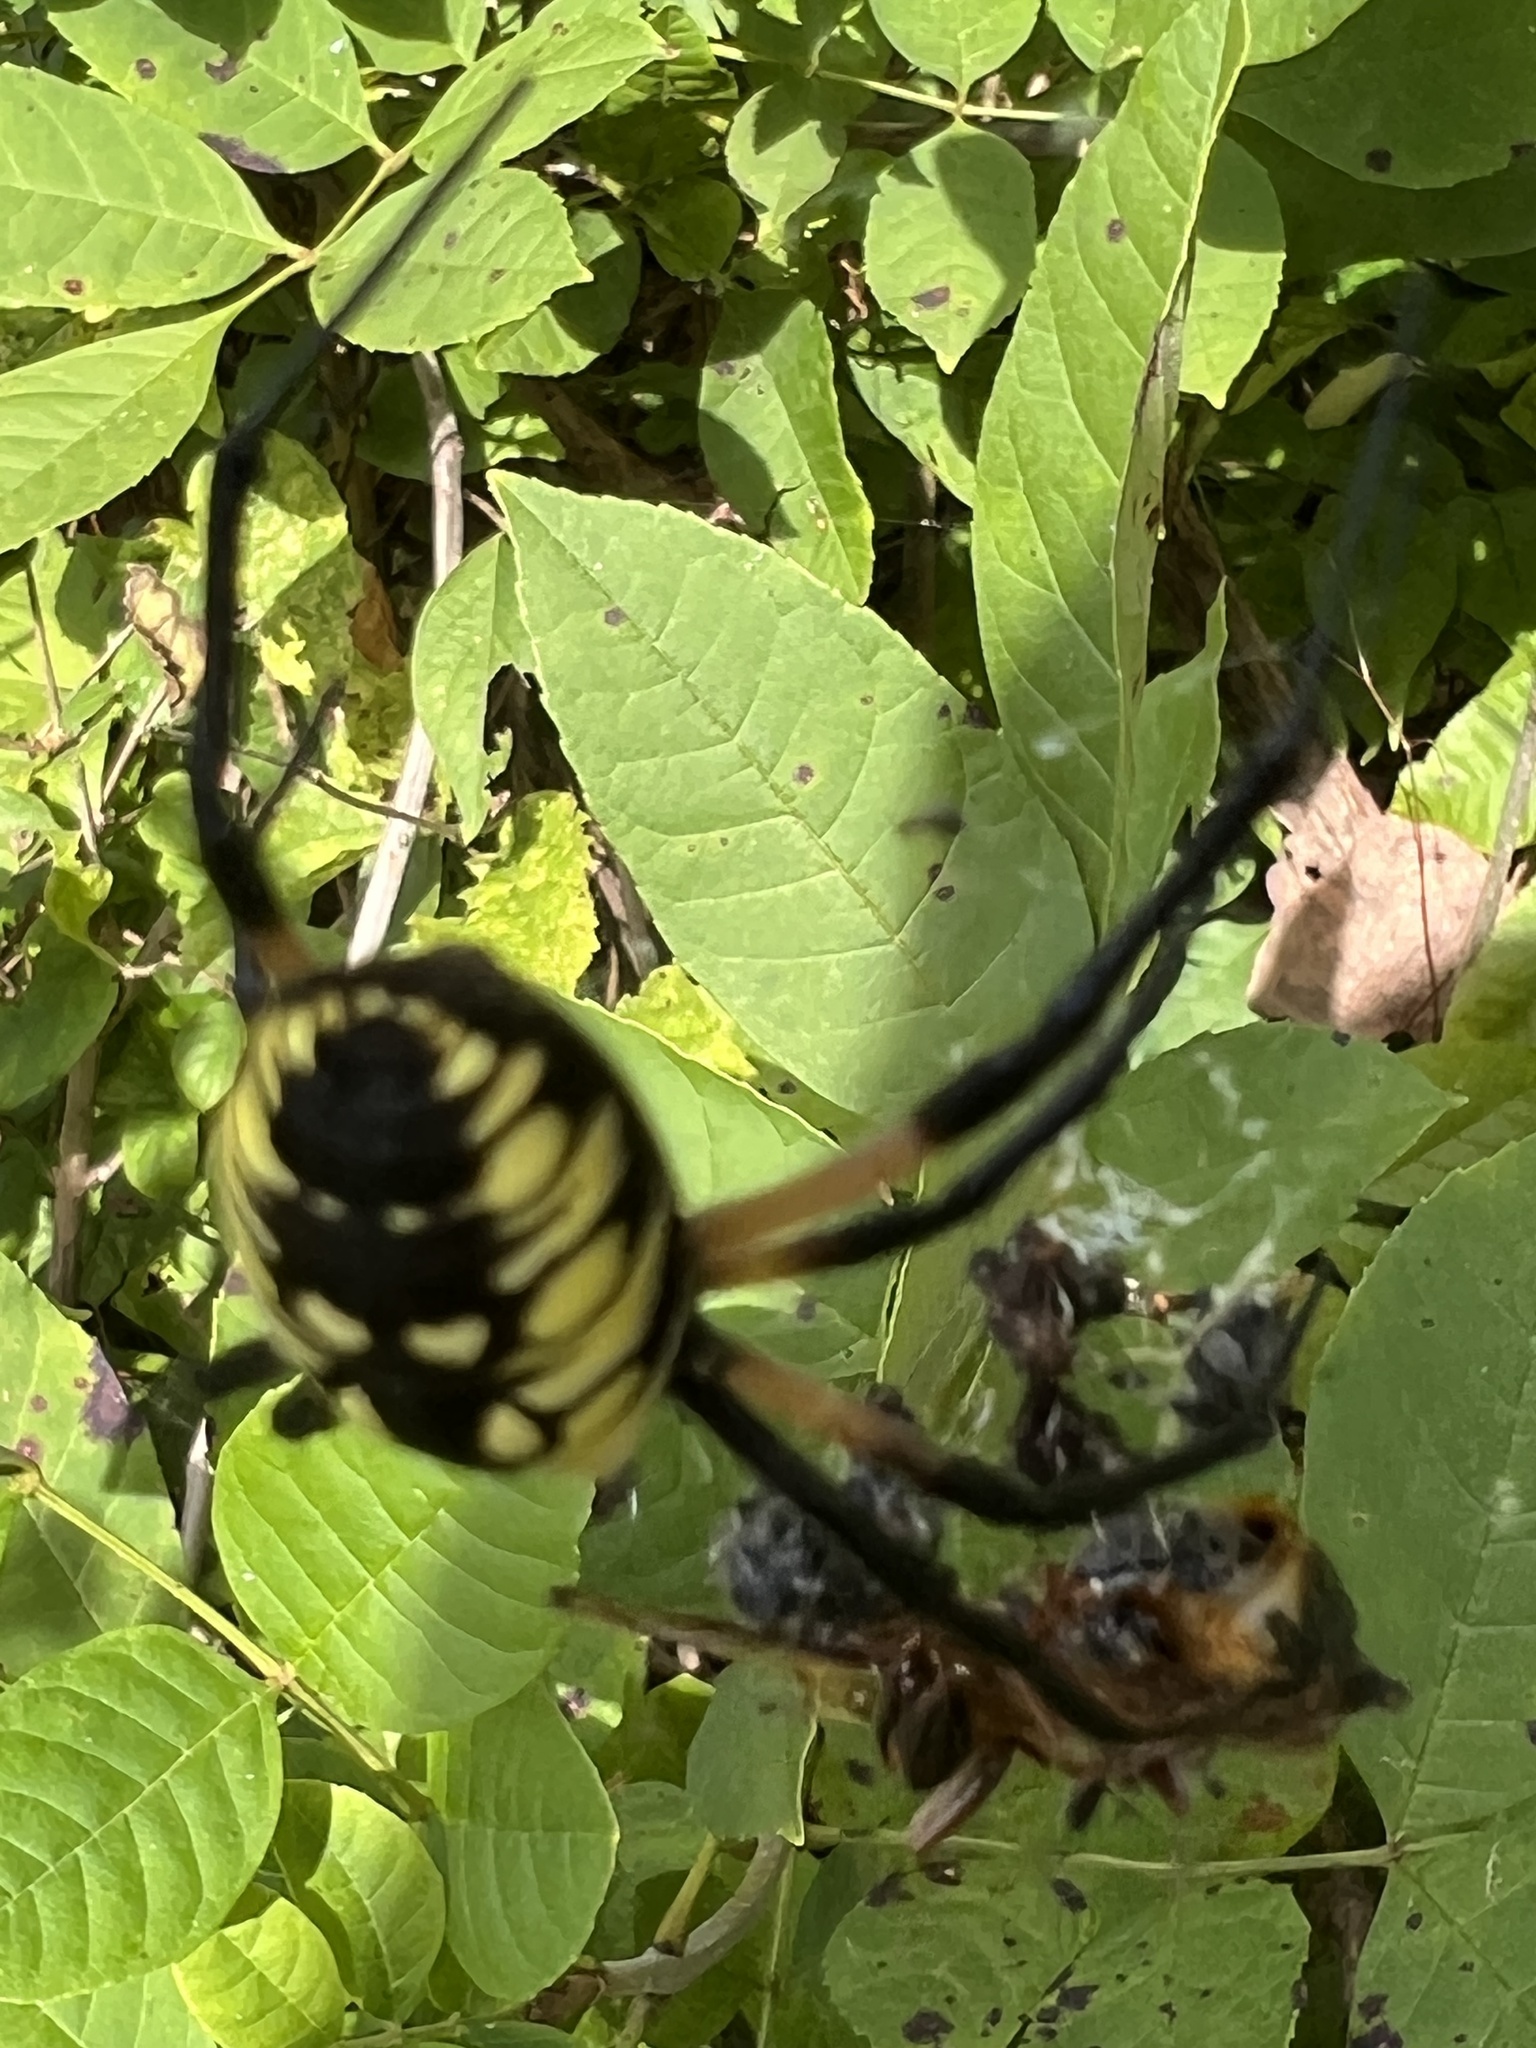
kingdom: Animalia
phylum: Arthropoda
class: Arachnida
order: Araneae
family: Araneidae
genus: Argiope
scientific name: Argiope aurantia
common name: Orb weavers
